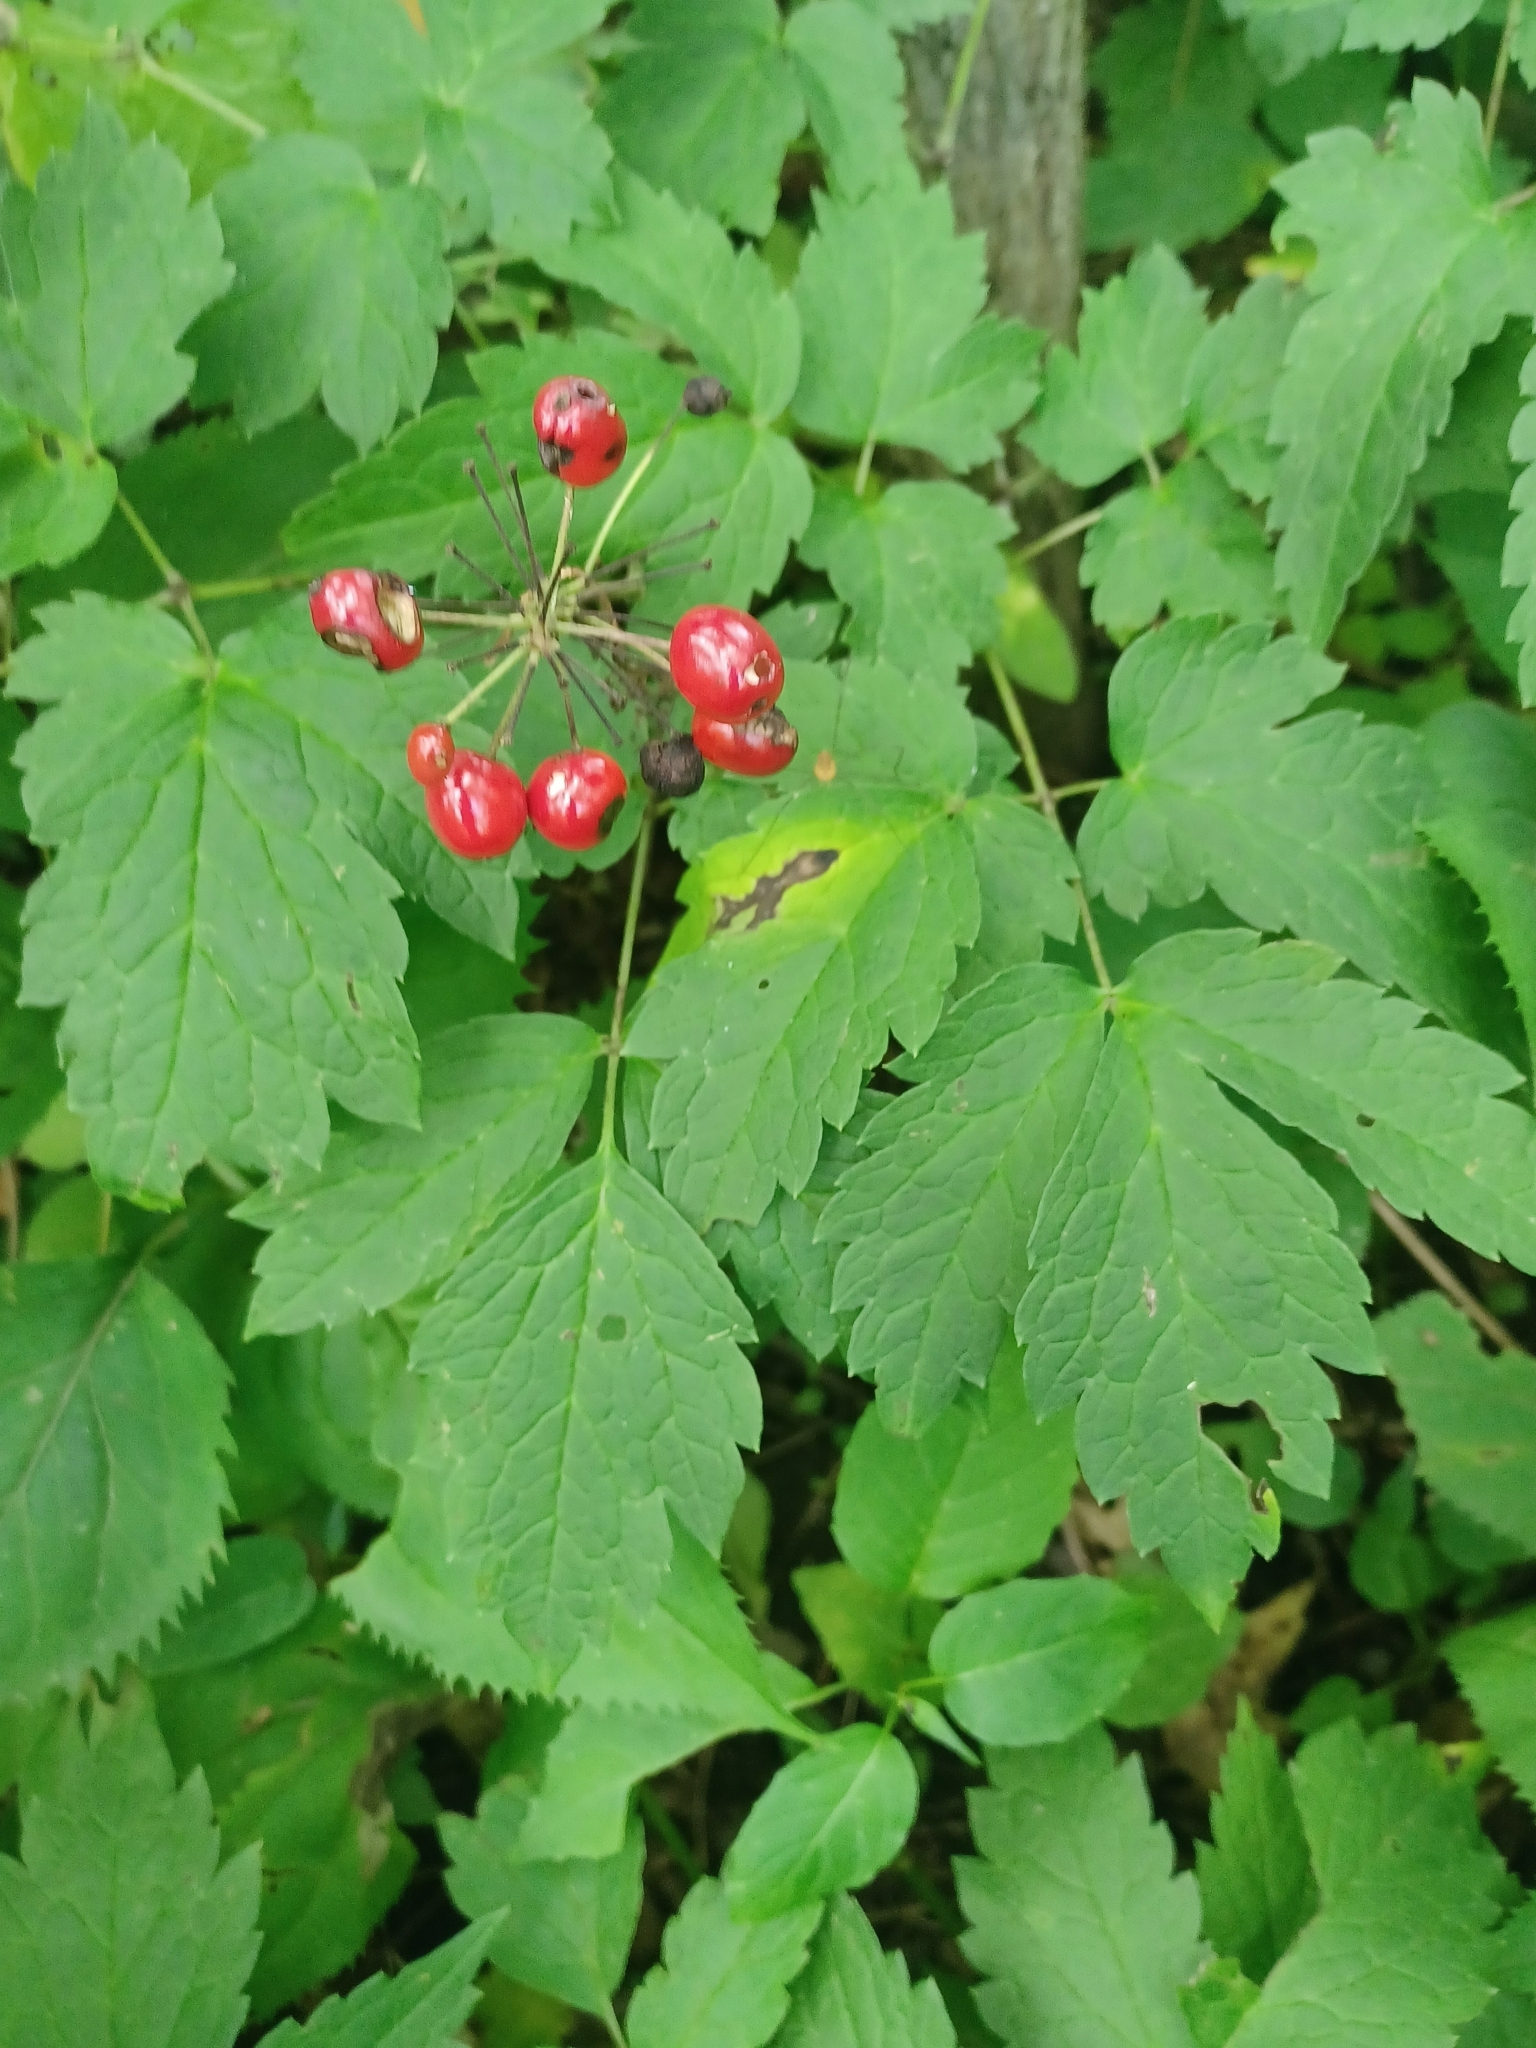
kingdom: Plantae
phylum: Tracheophyta
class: Magnoliopsida
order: Ranunculales
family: Ranunculaceae
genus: Actaea
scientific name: Actaea rubra
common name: Red baneberry
